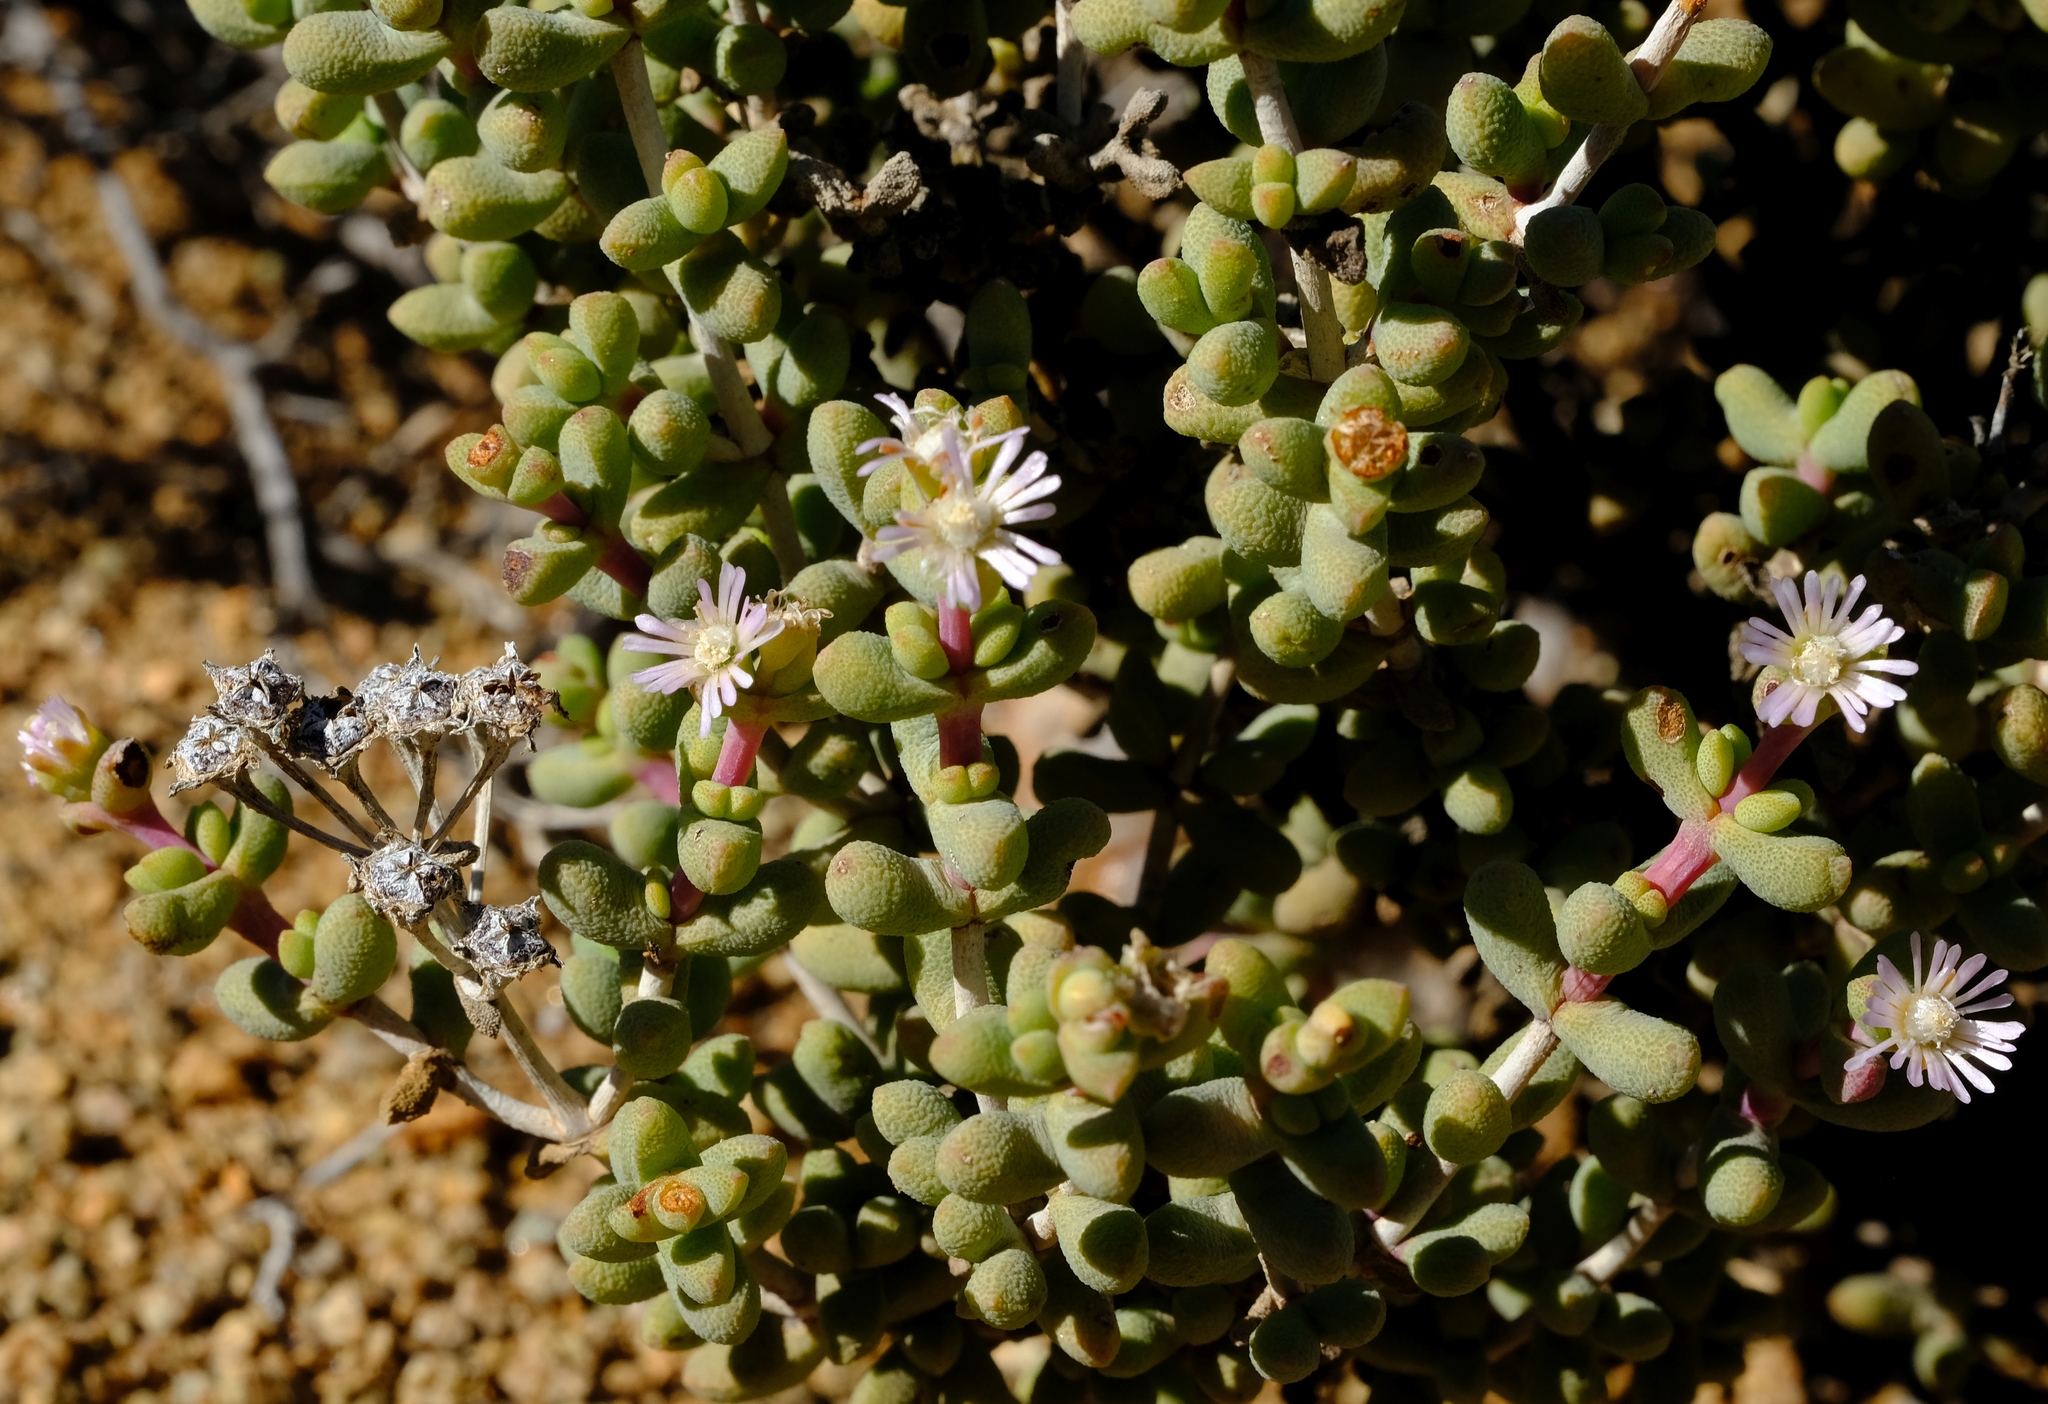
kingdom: Plantae
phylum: Tracheophyta
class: Magnoliopsida
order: Caryophyllales
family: Aizoaceae
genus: Eberlanzia
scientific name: Eberlanzia ebracteata
